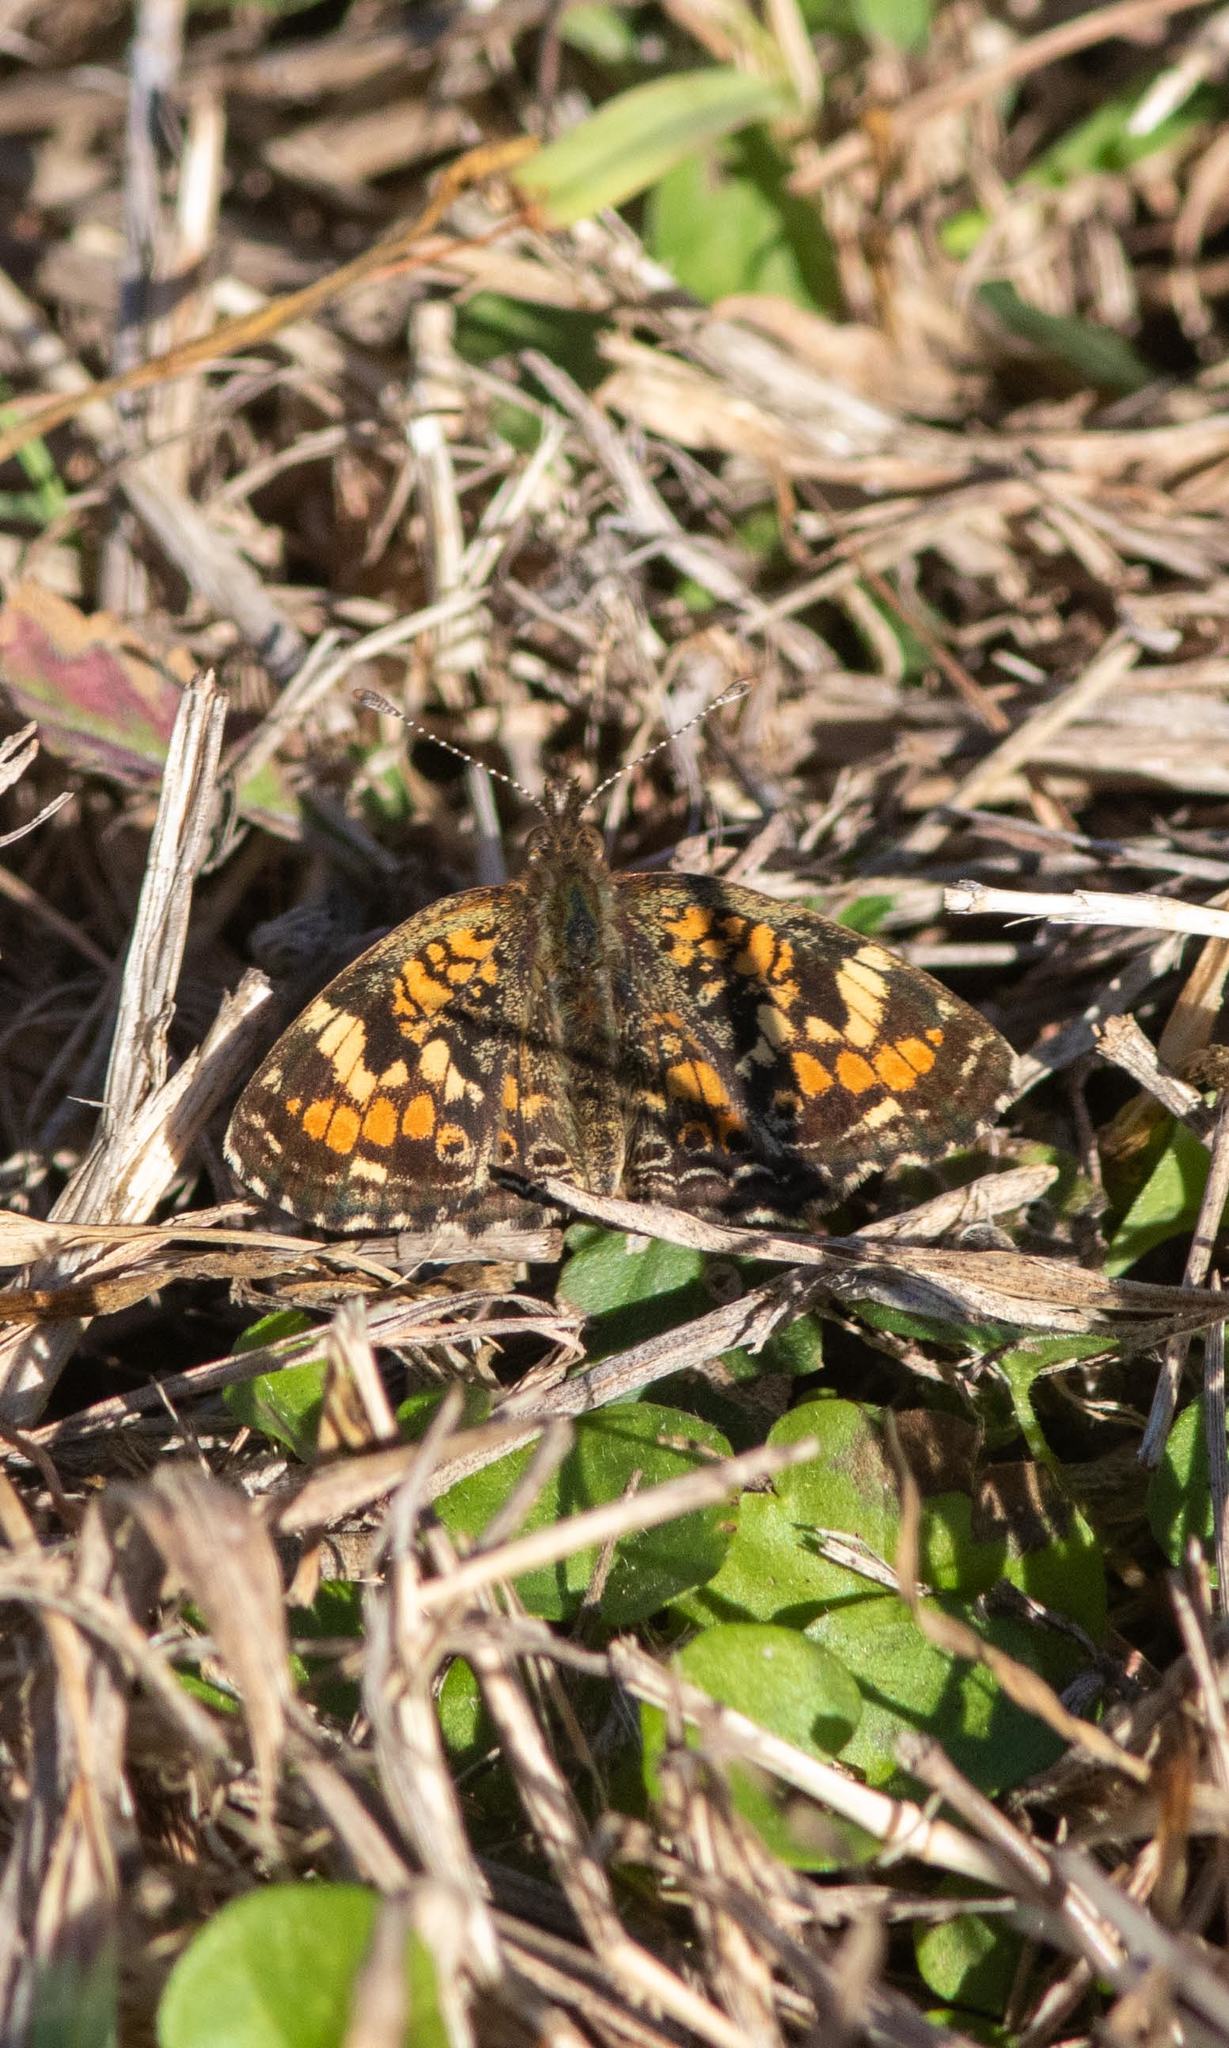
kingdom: Animalia
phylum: Arthropoda
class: Insecta
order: Lepidoptera
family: Nymphalidae
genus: Phyciodes
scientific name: Phyciodes phaon
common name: Phaon crescent
